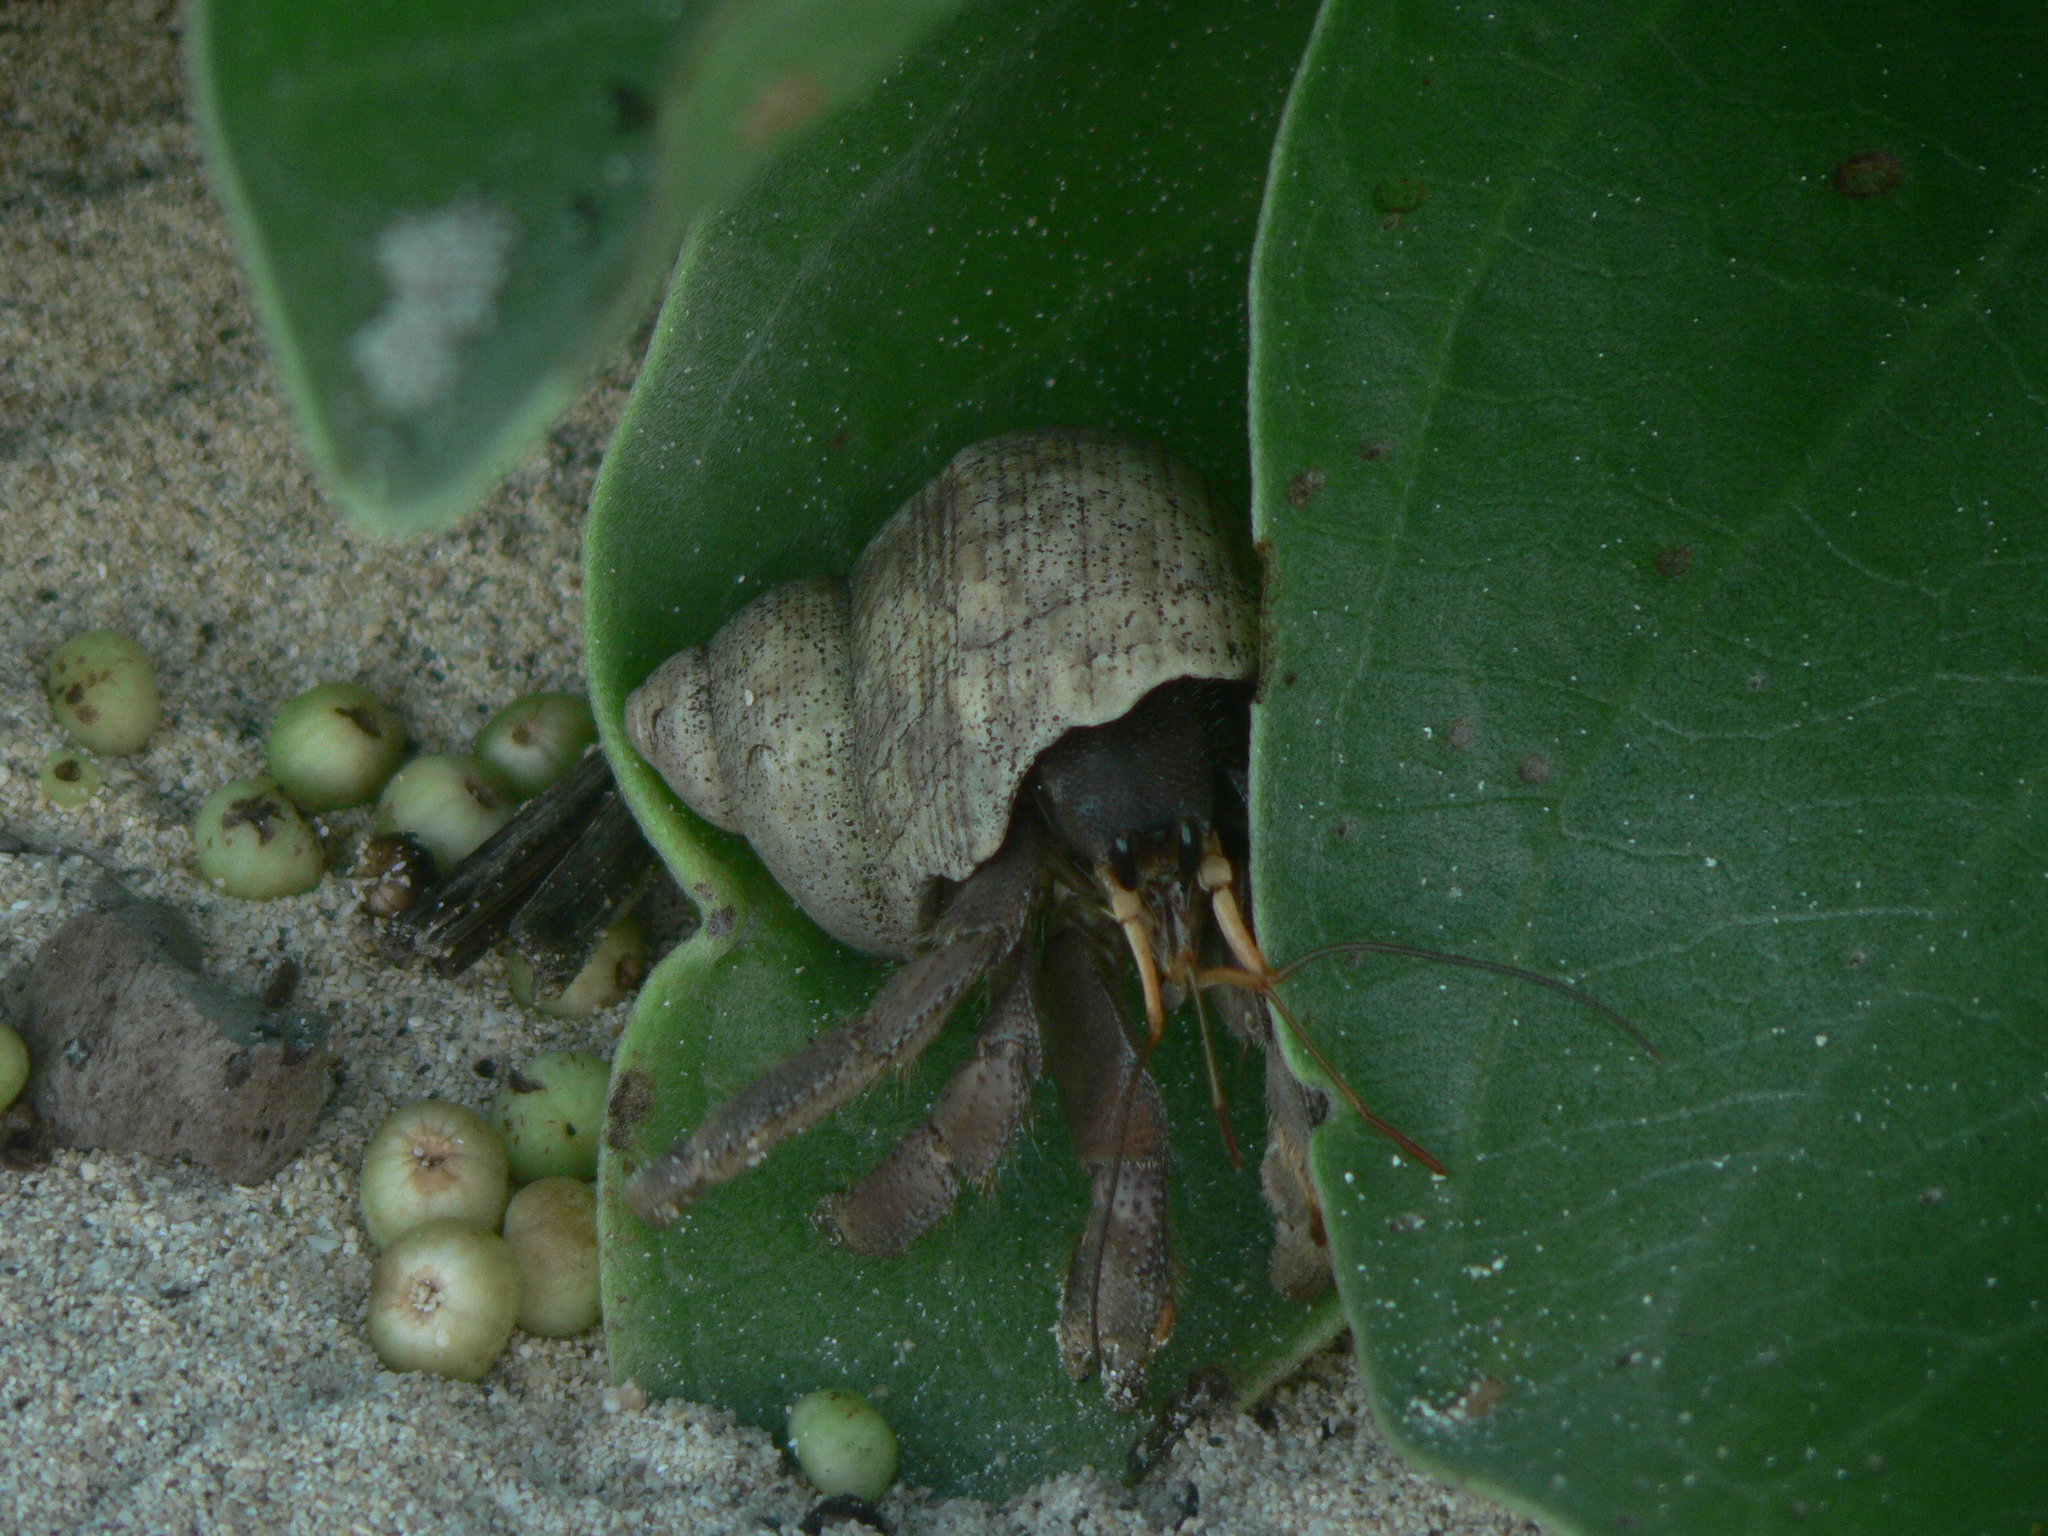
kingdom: Animalia
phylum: Arthropoda
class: Malacostraca
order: Decapoda
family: Coenobitidae
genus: Coenobita
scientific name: Coenobita rugosus
